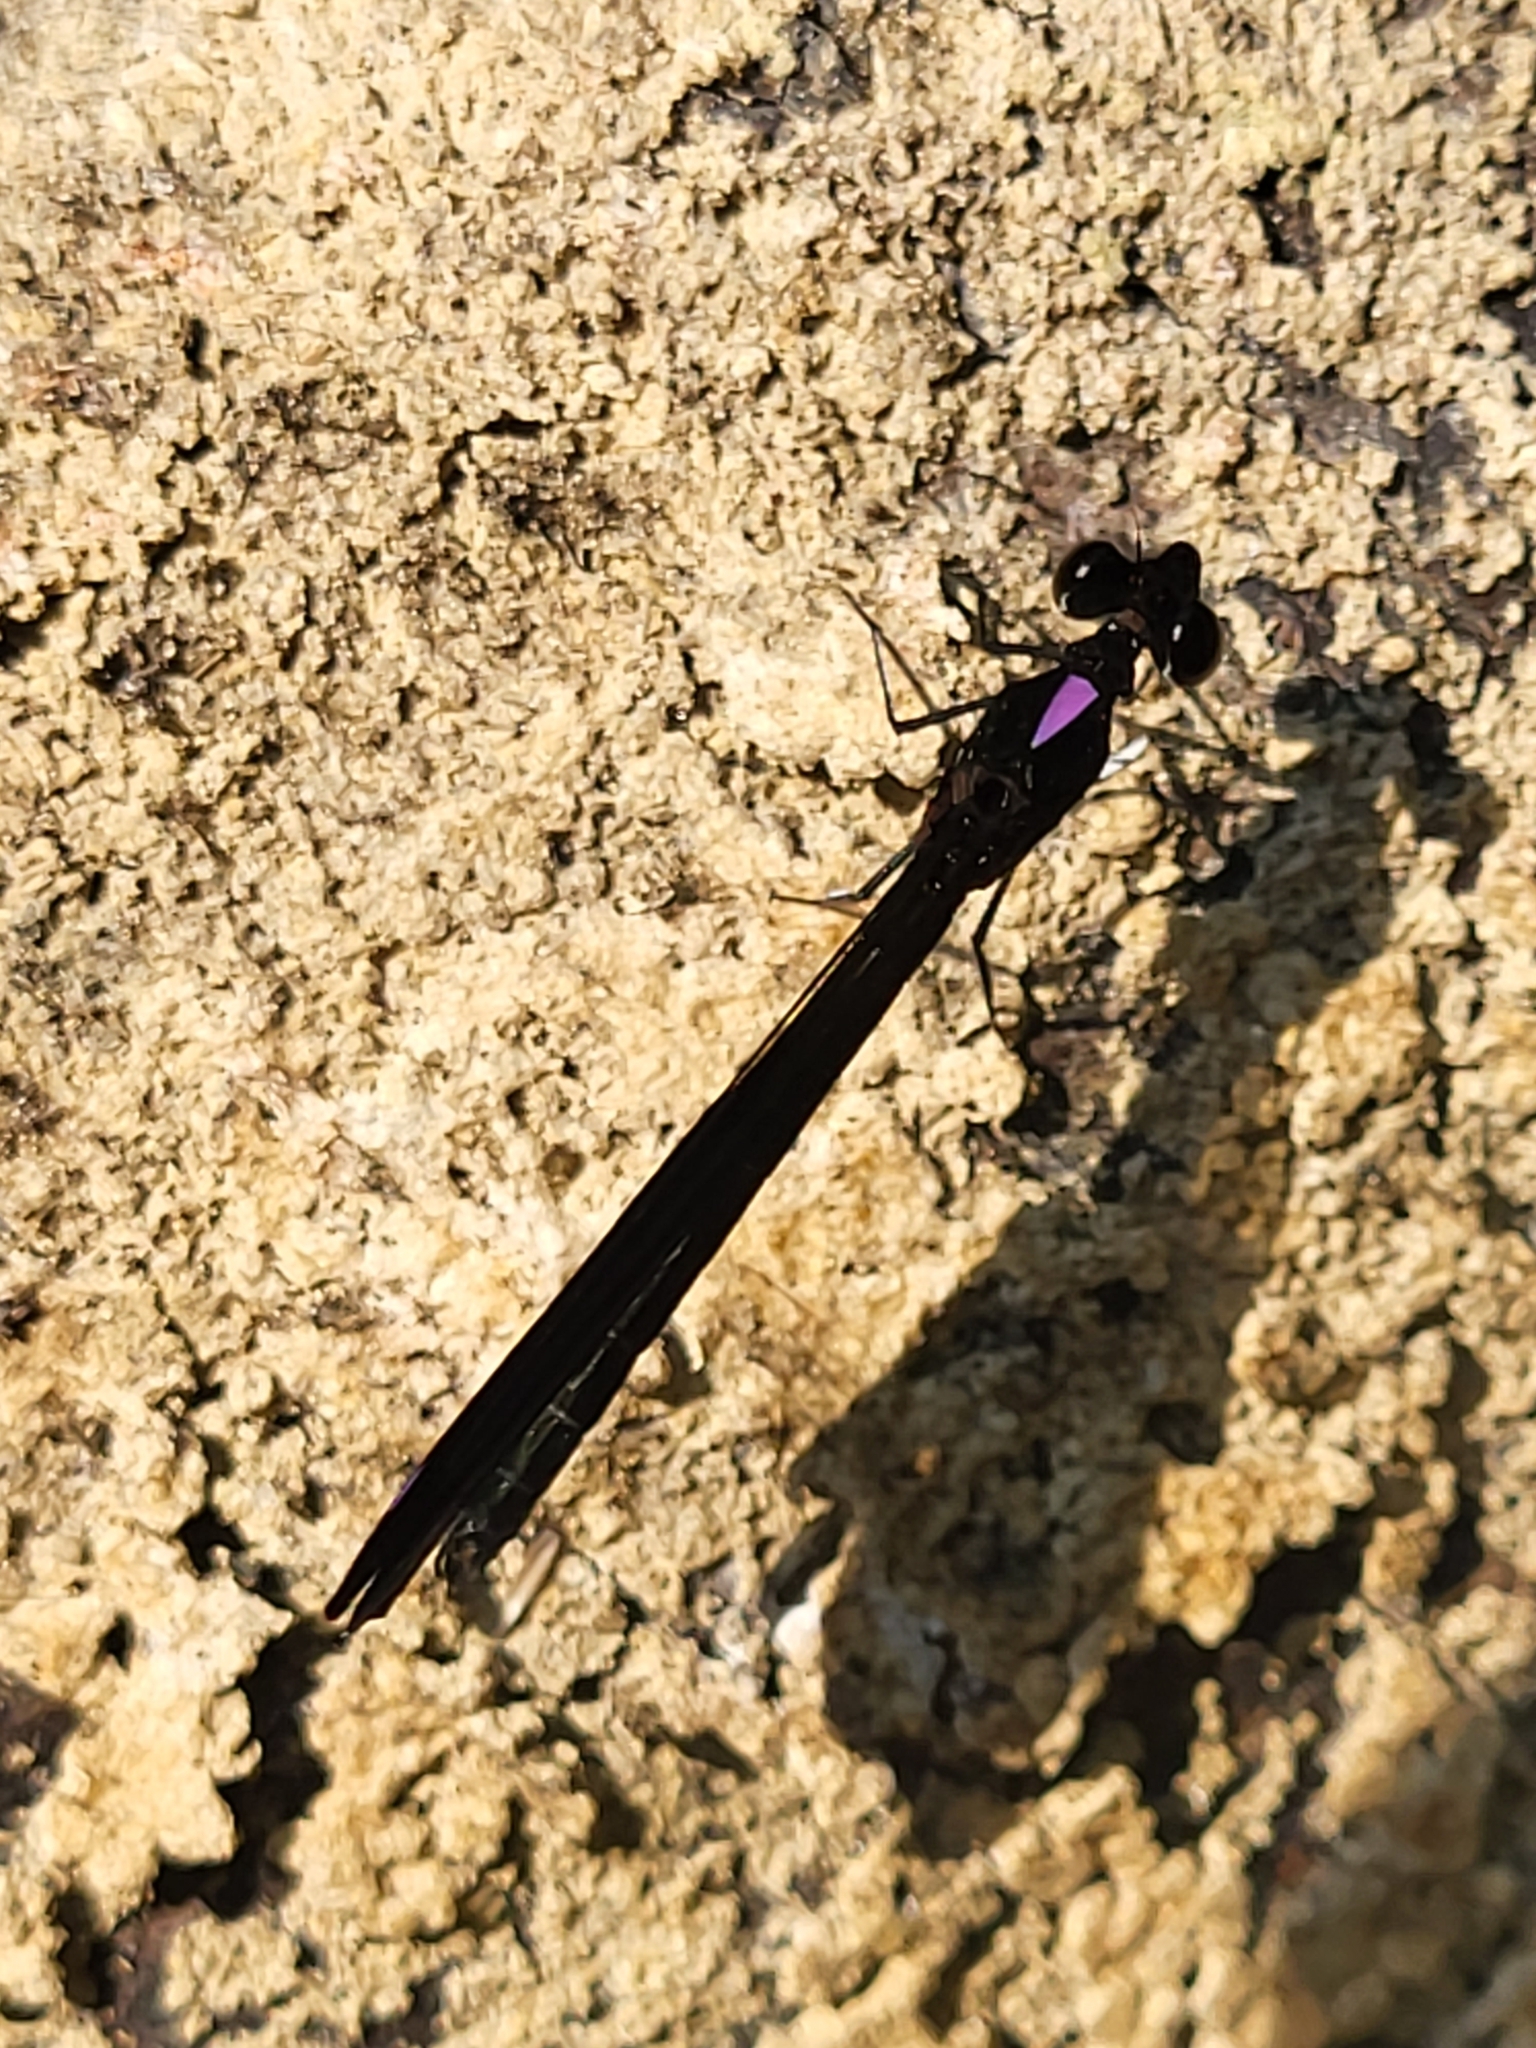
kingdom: Animalia
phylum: Arthropoda
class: Insecta
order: Odonata
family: Chlorocyphidae
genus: Aristocypha
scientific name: Aristocypha fenestrella
